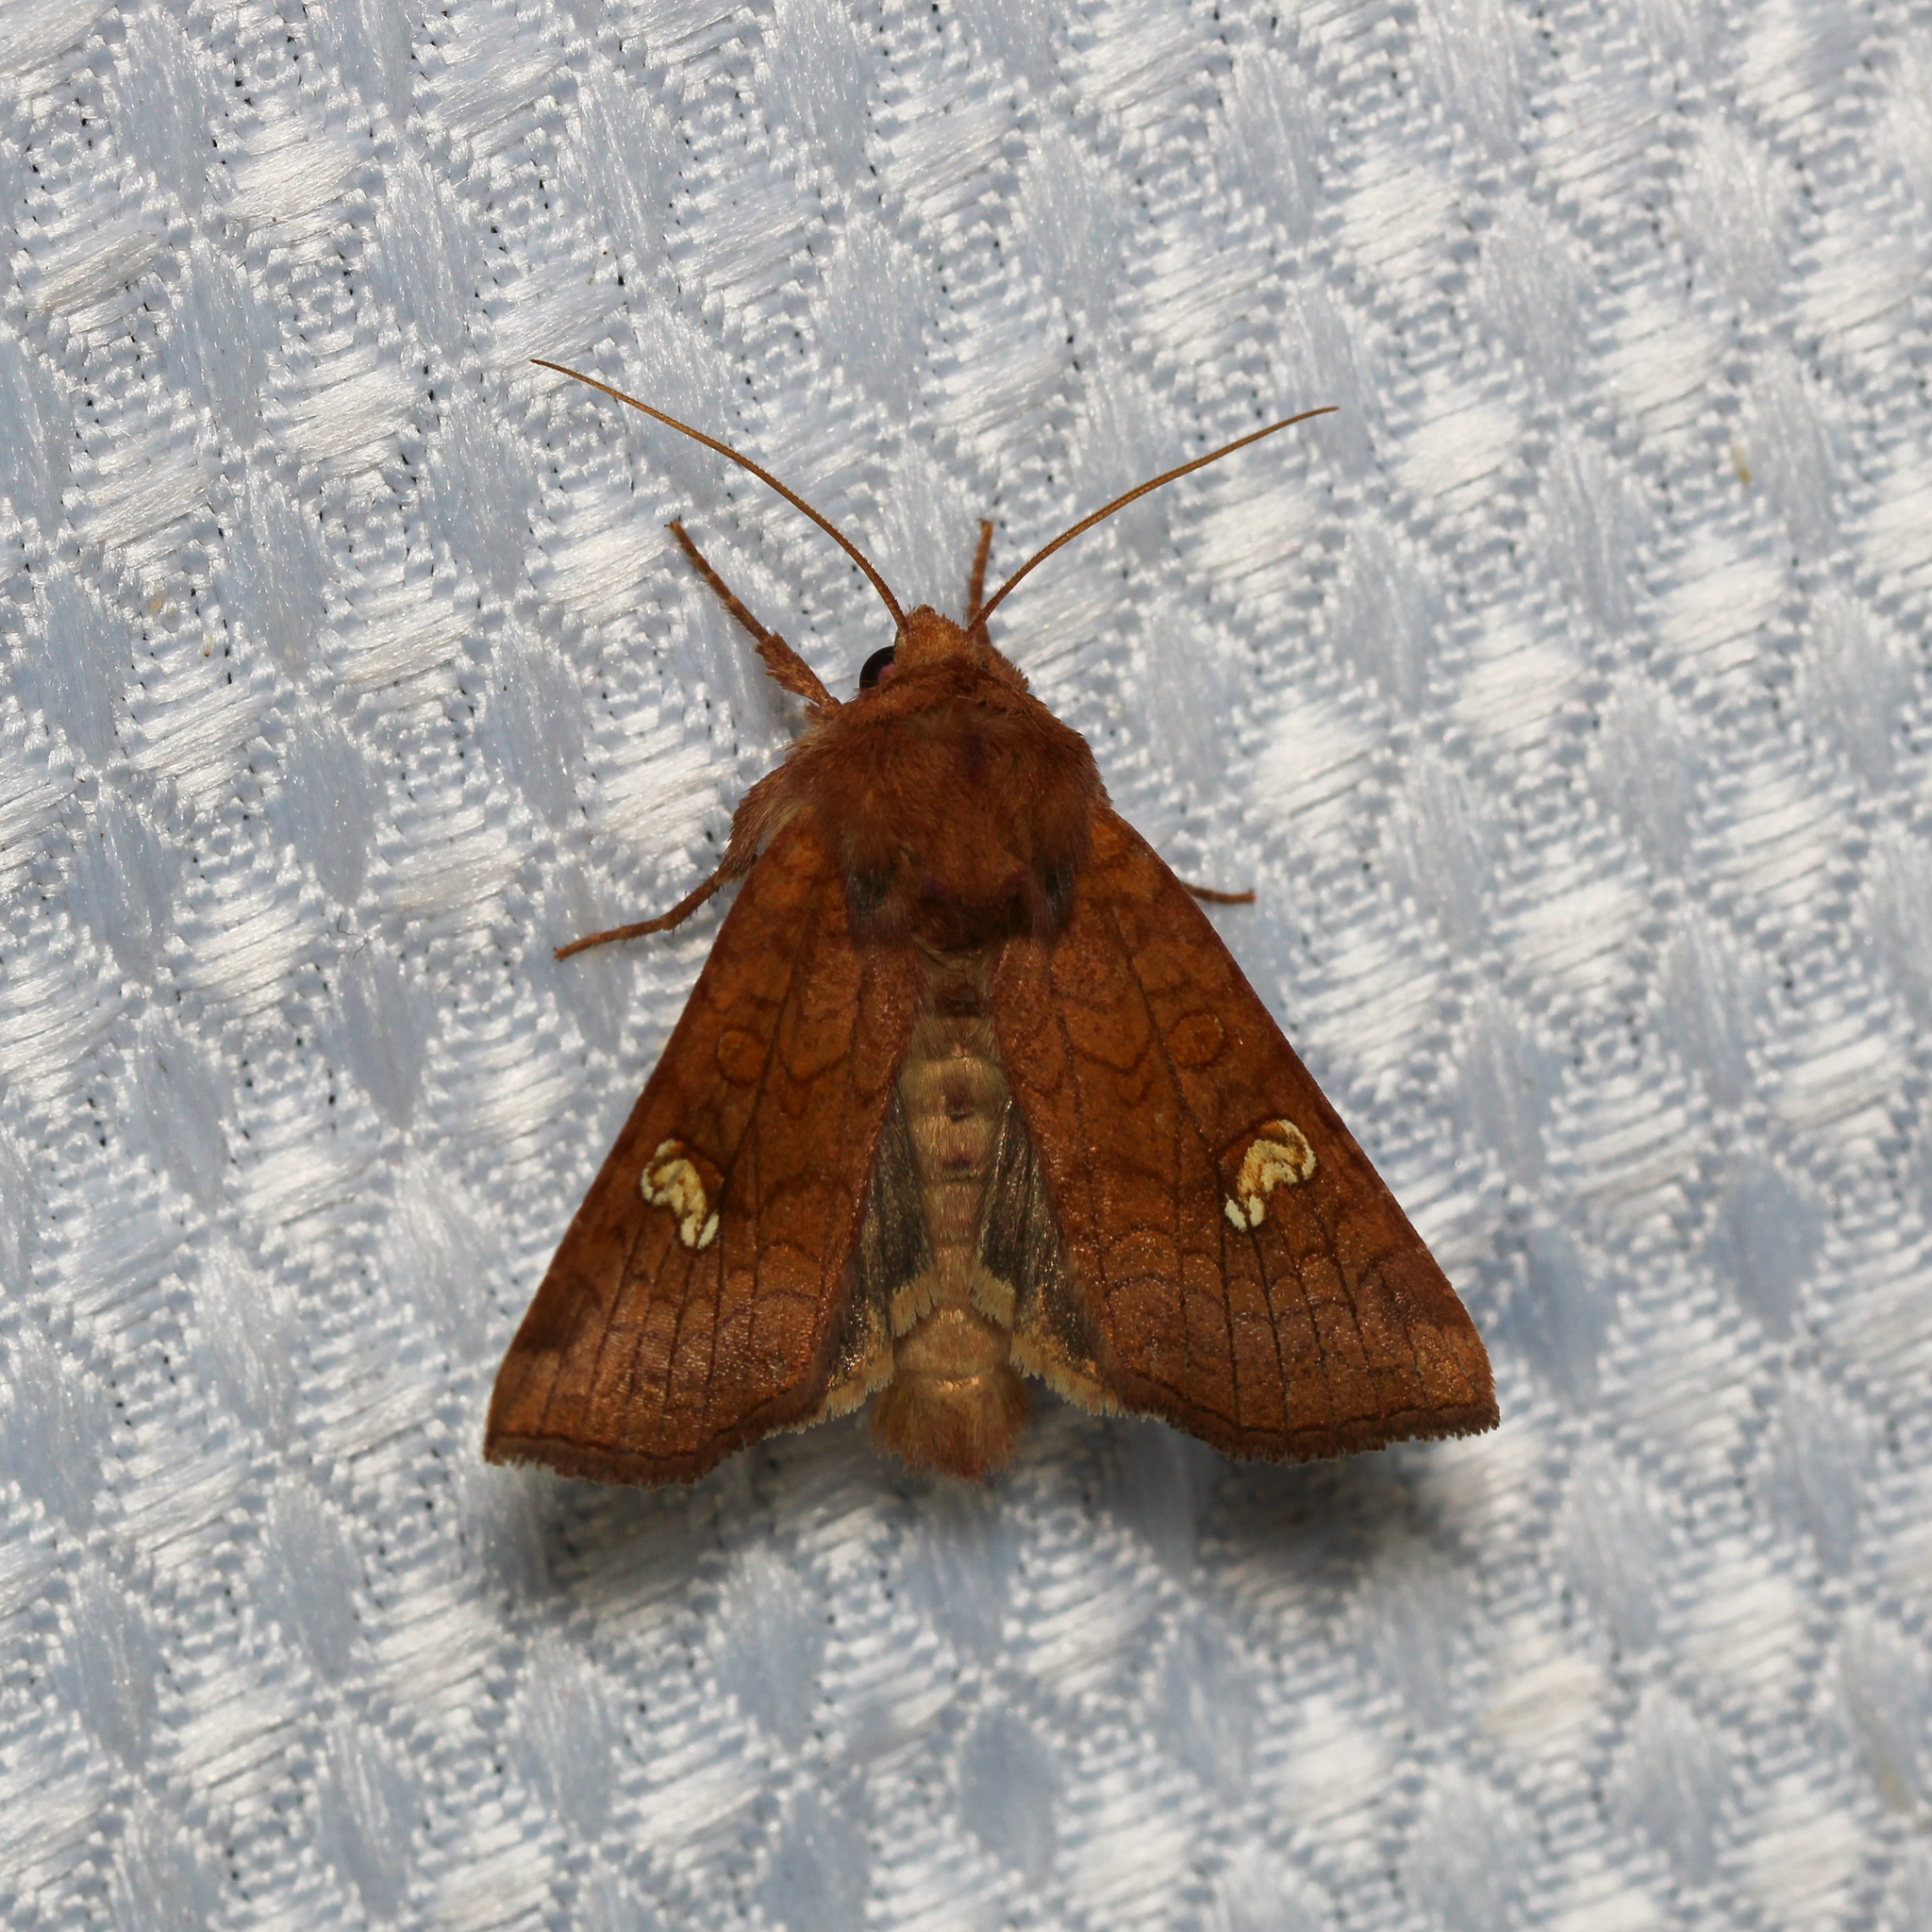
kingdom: Animalia
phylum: Arthropoda
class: Insecta
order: Lepidoptera
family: Noctuidae
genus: Amphipoea
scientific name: Amphipoea
